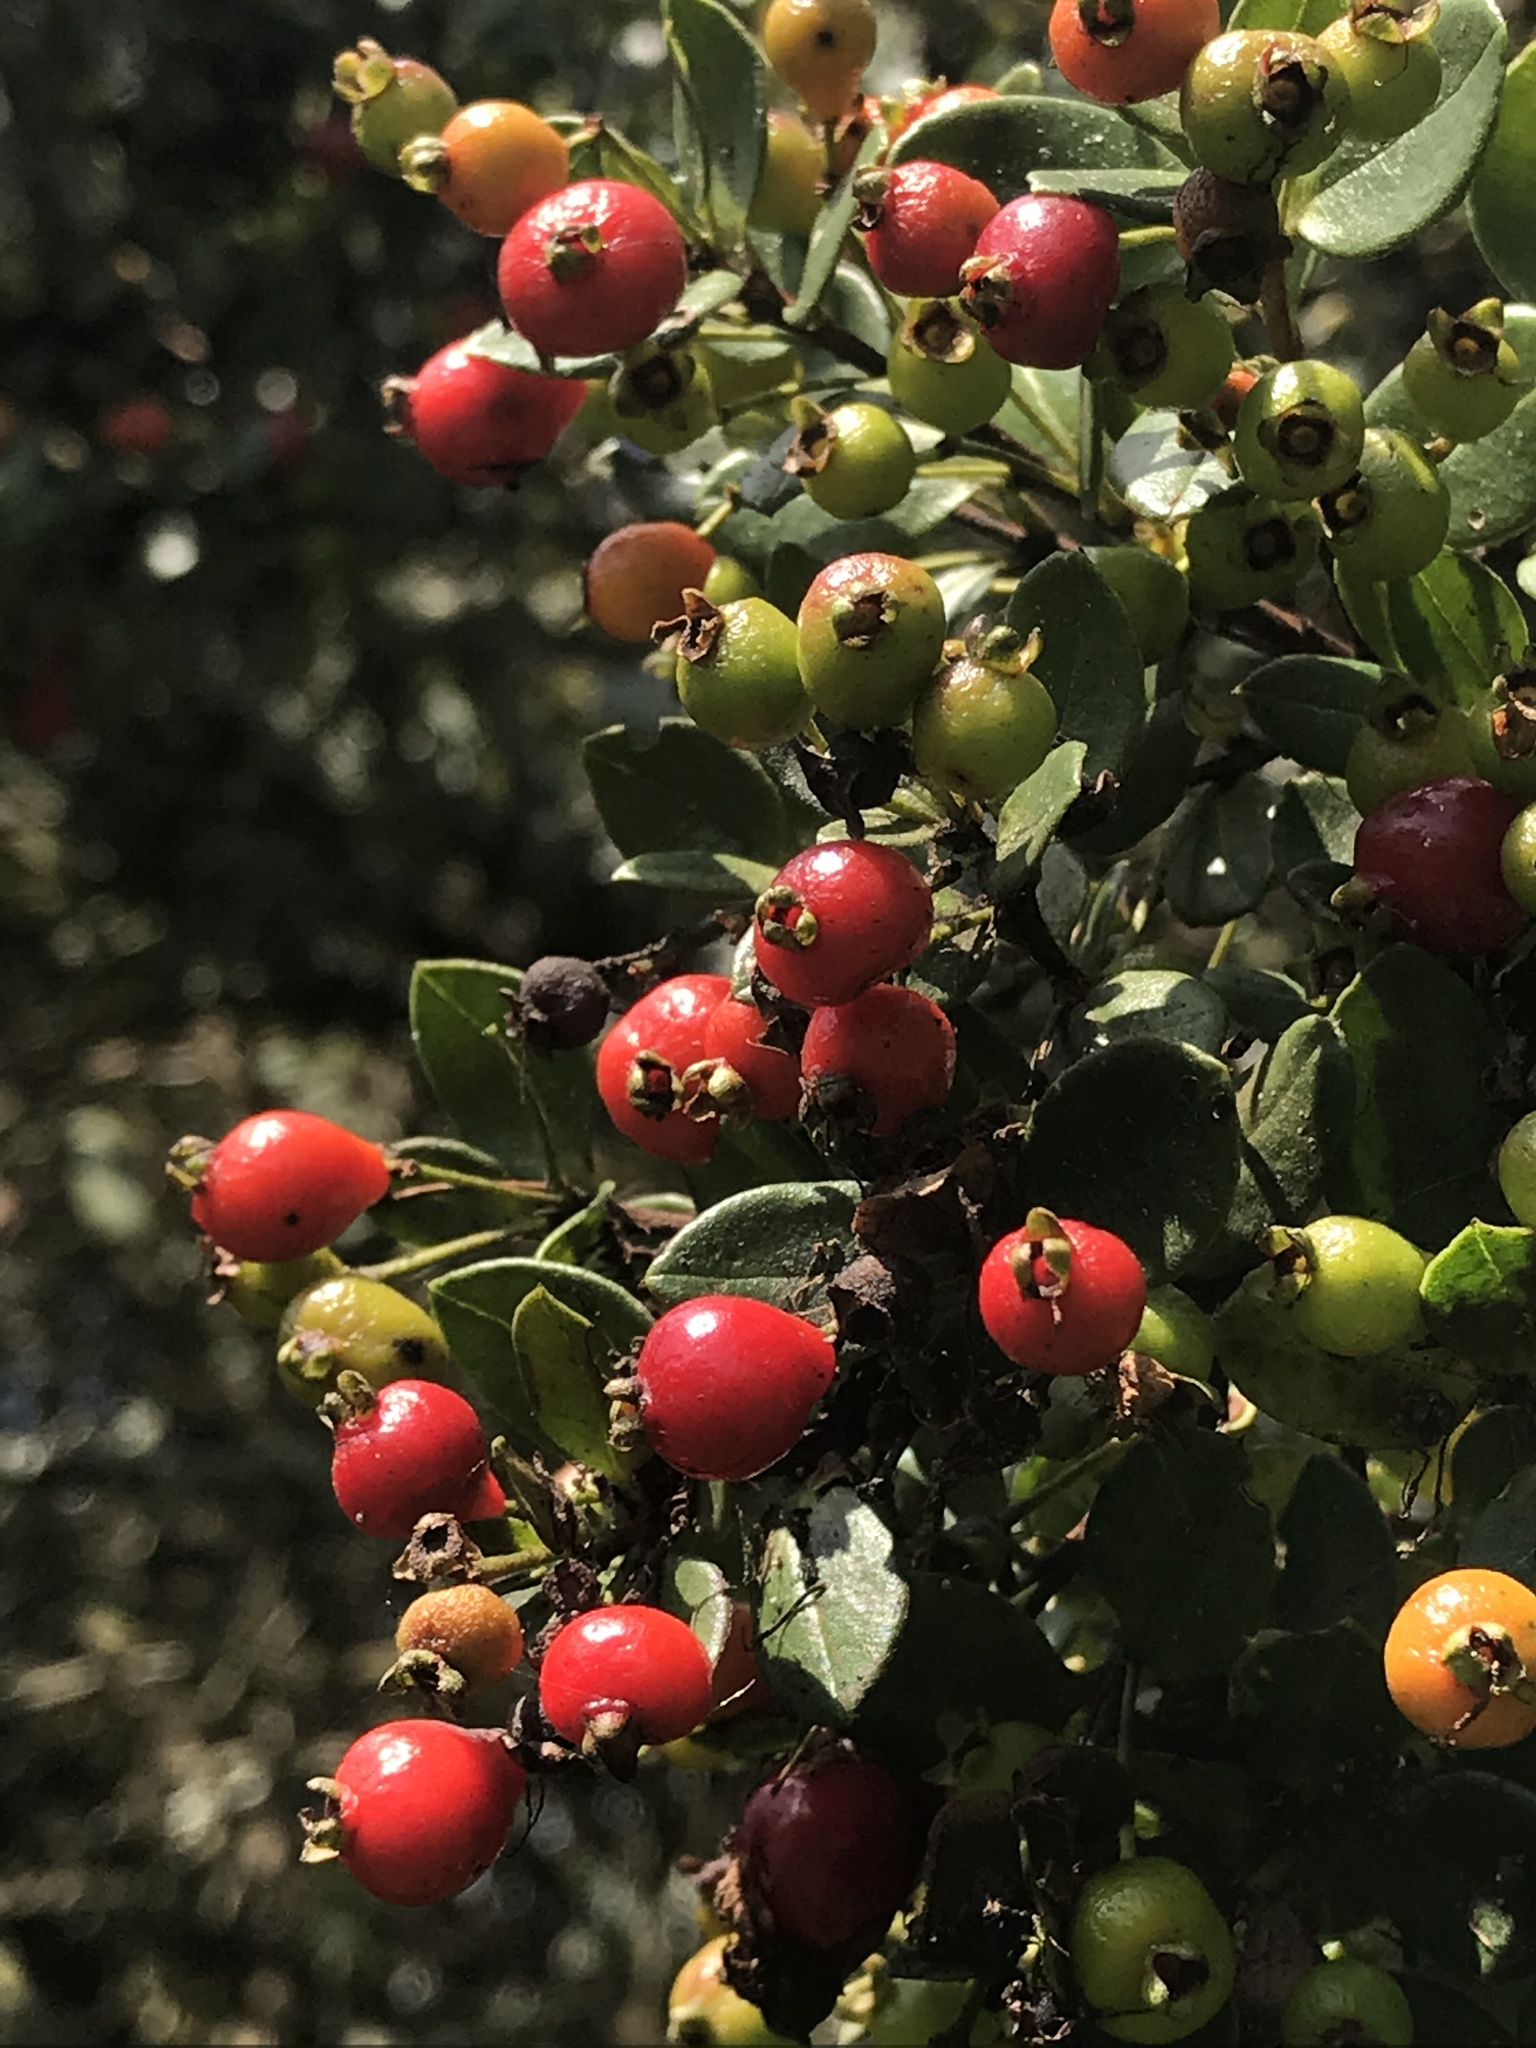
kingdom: Plantae
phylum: Tracheophyta
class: Magnoliopsida
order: Myrtales
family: Myrtaceae
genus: Myrcianthes
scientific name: Myrcianthes leucoxyla
